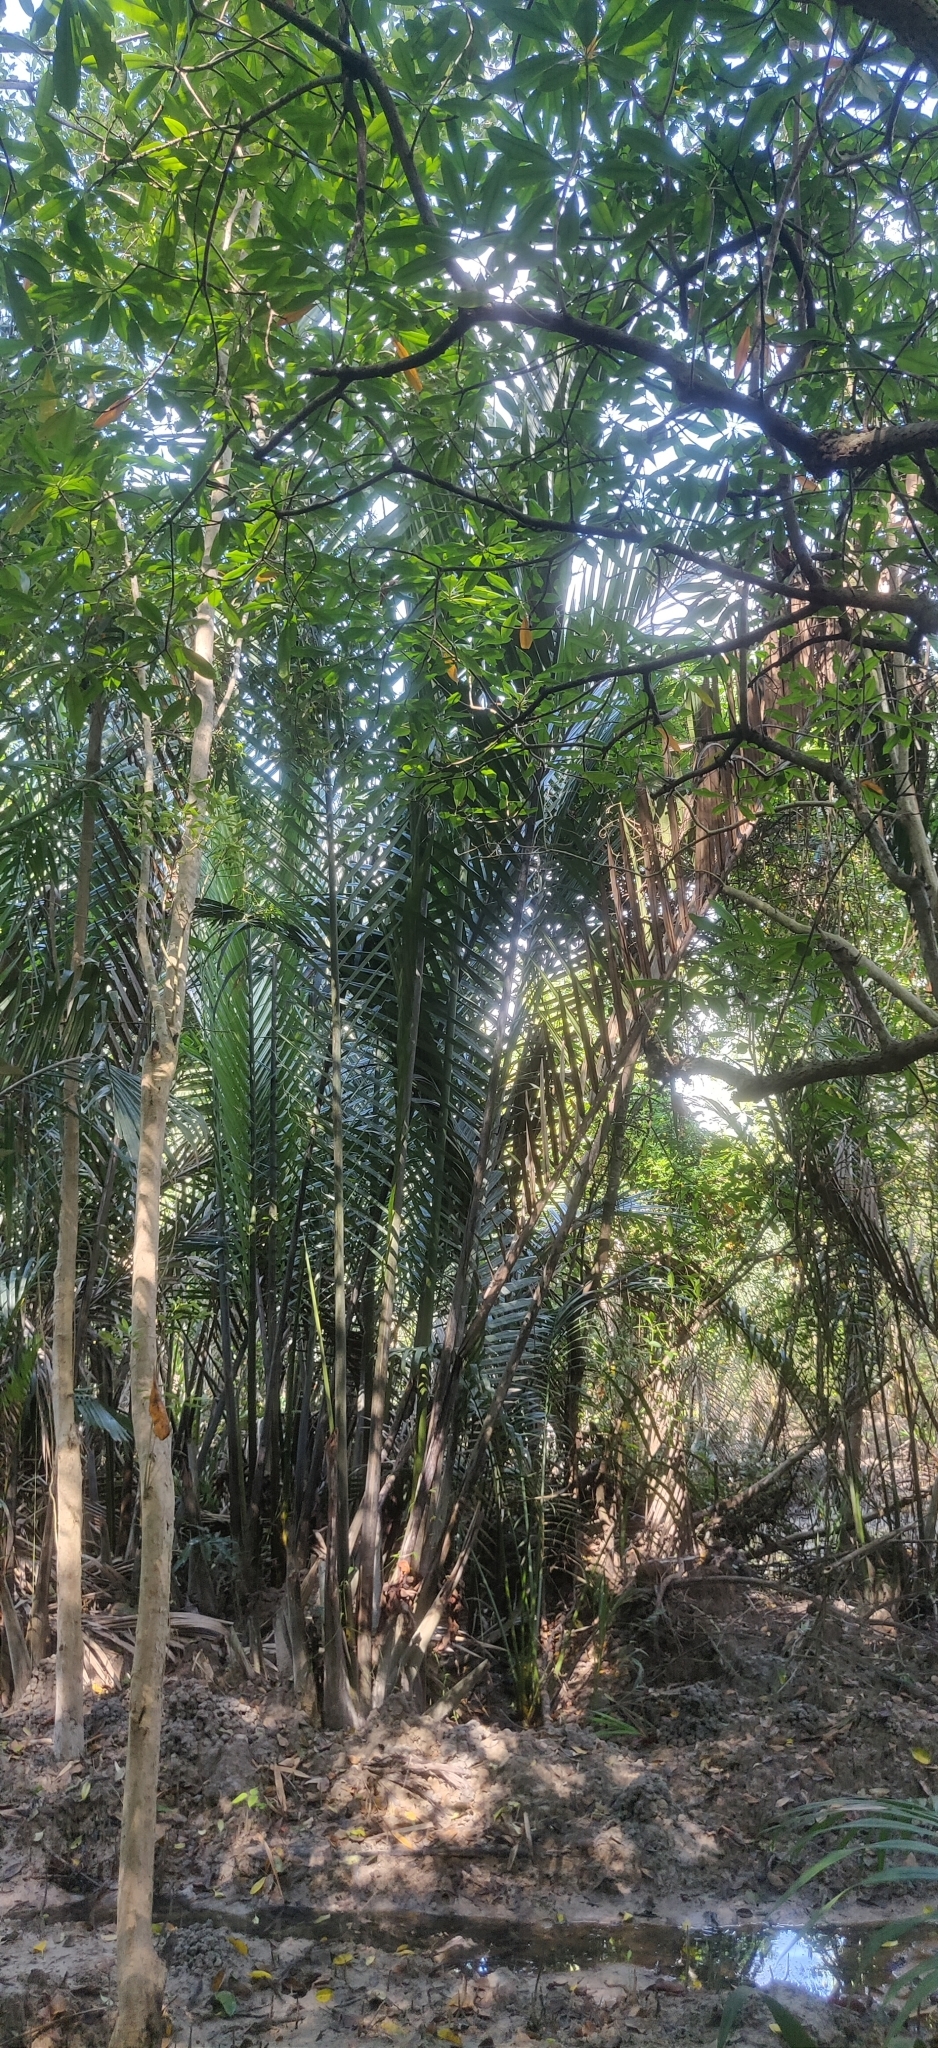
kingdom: Plantae
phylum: Tracheophyta
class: Liliopsida
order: Arecales
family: Arecaceae
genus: Nypa
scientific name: Nypa fruticans
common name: Mangrove palm
